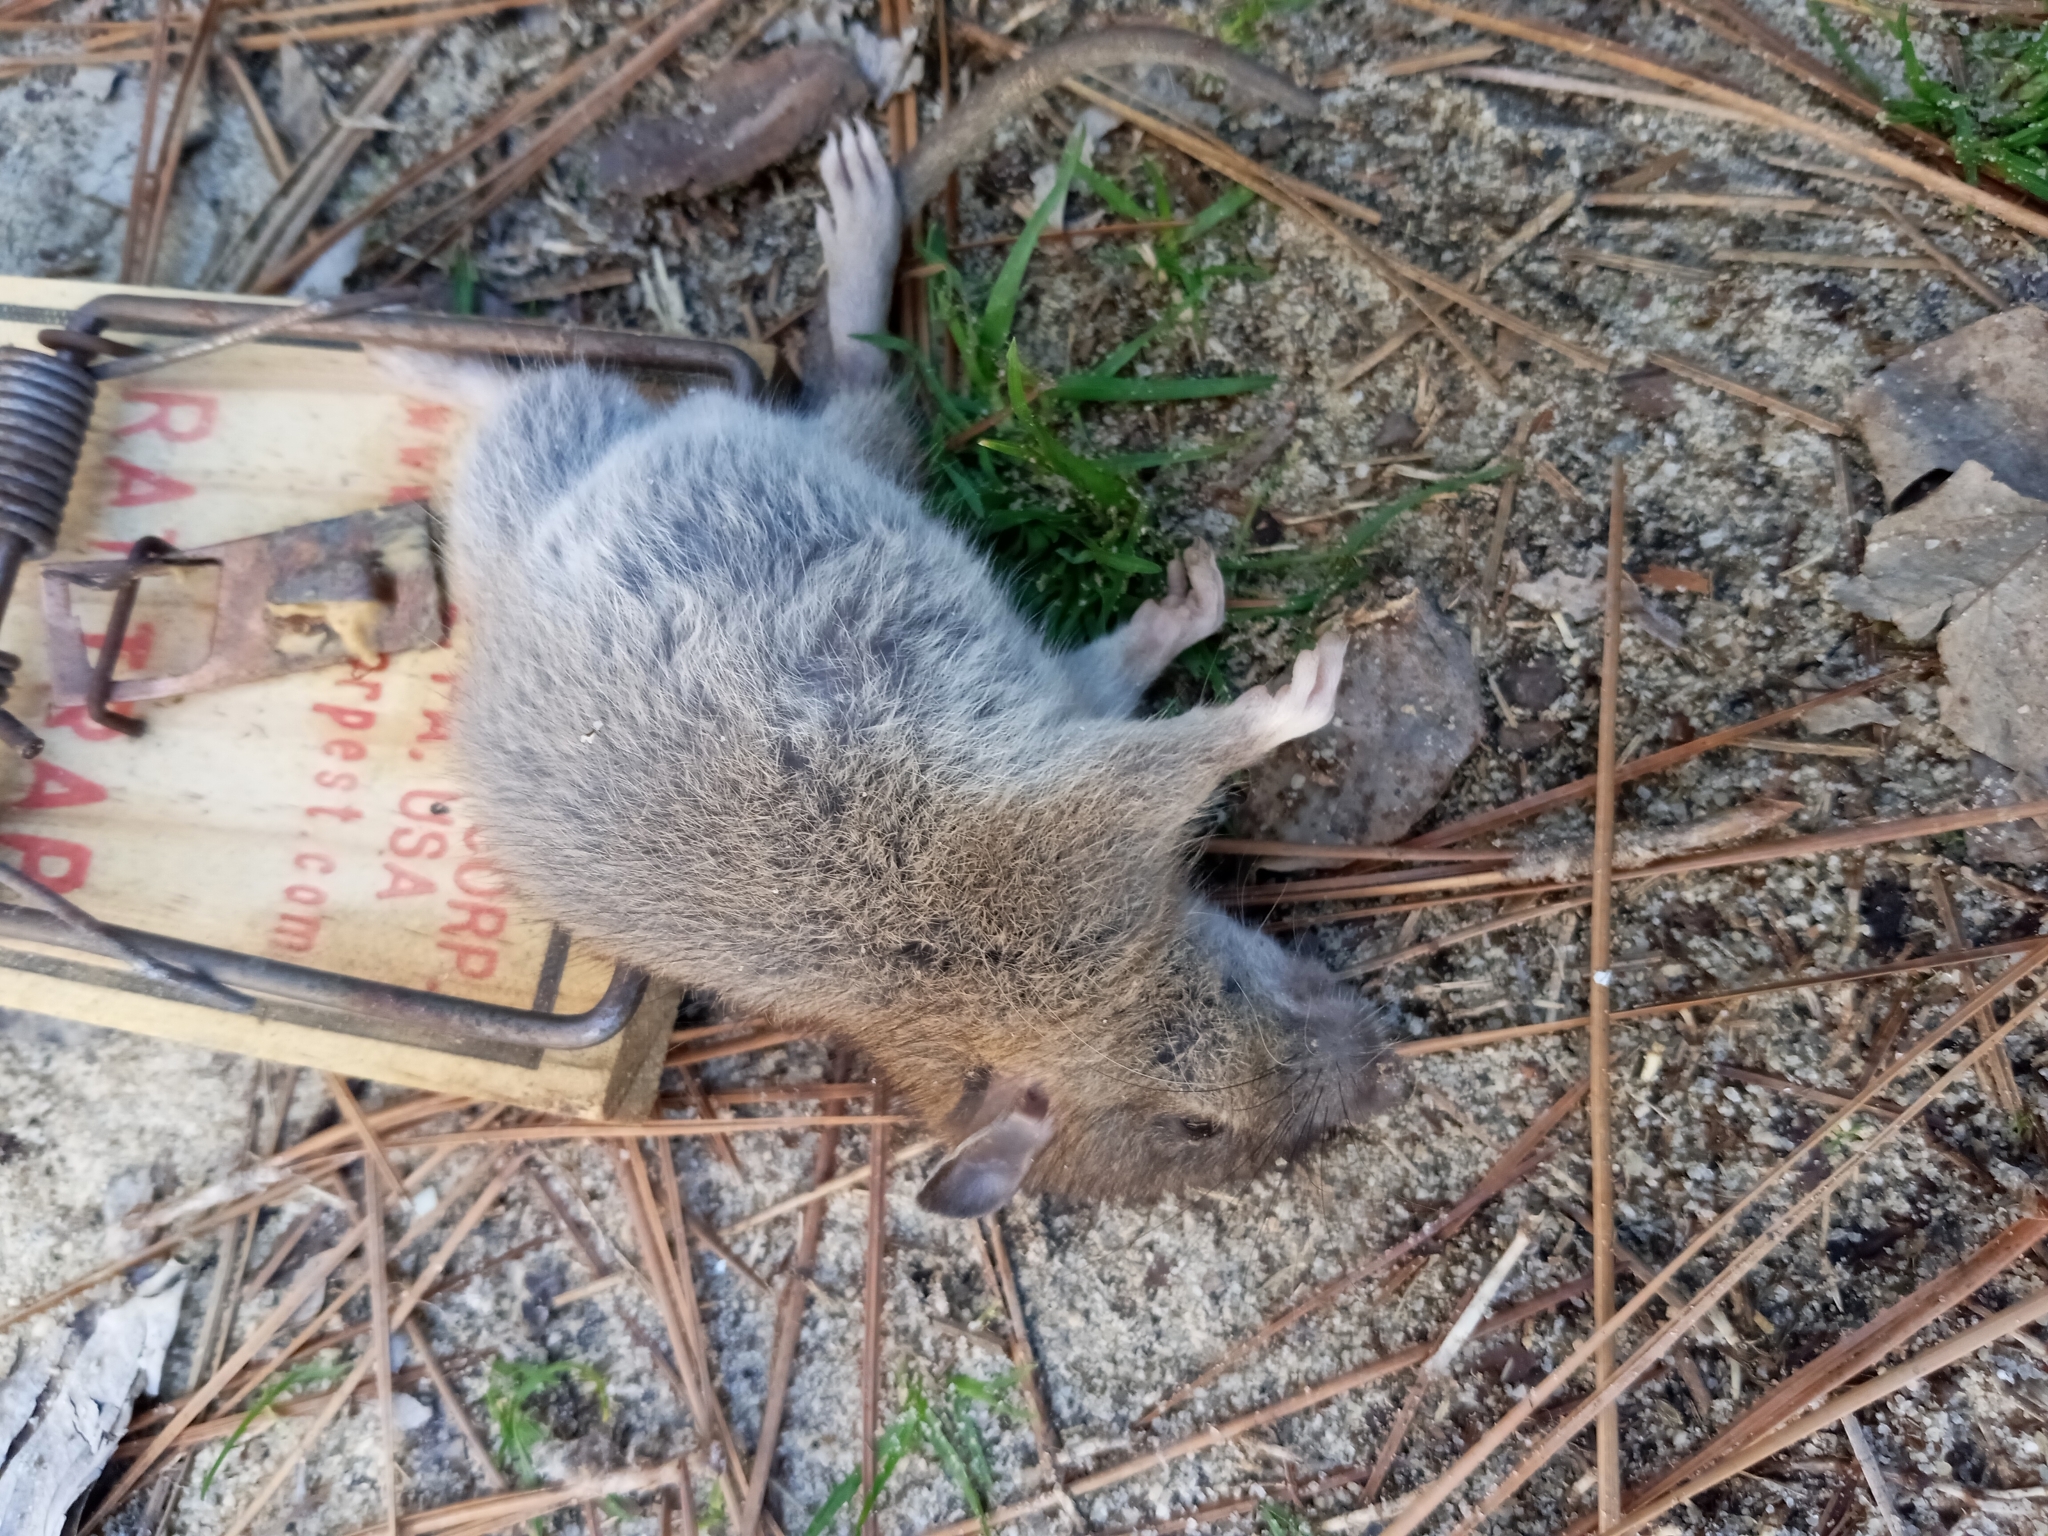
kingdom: Animalia
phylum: Chordata
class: Mammalia
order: Rodentia
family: Muridae
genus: Rattus
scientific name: Rattus norvegicus
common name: Brown rat
